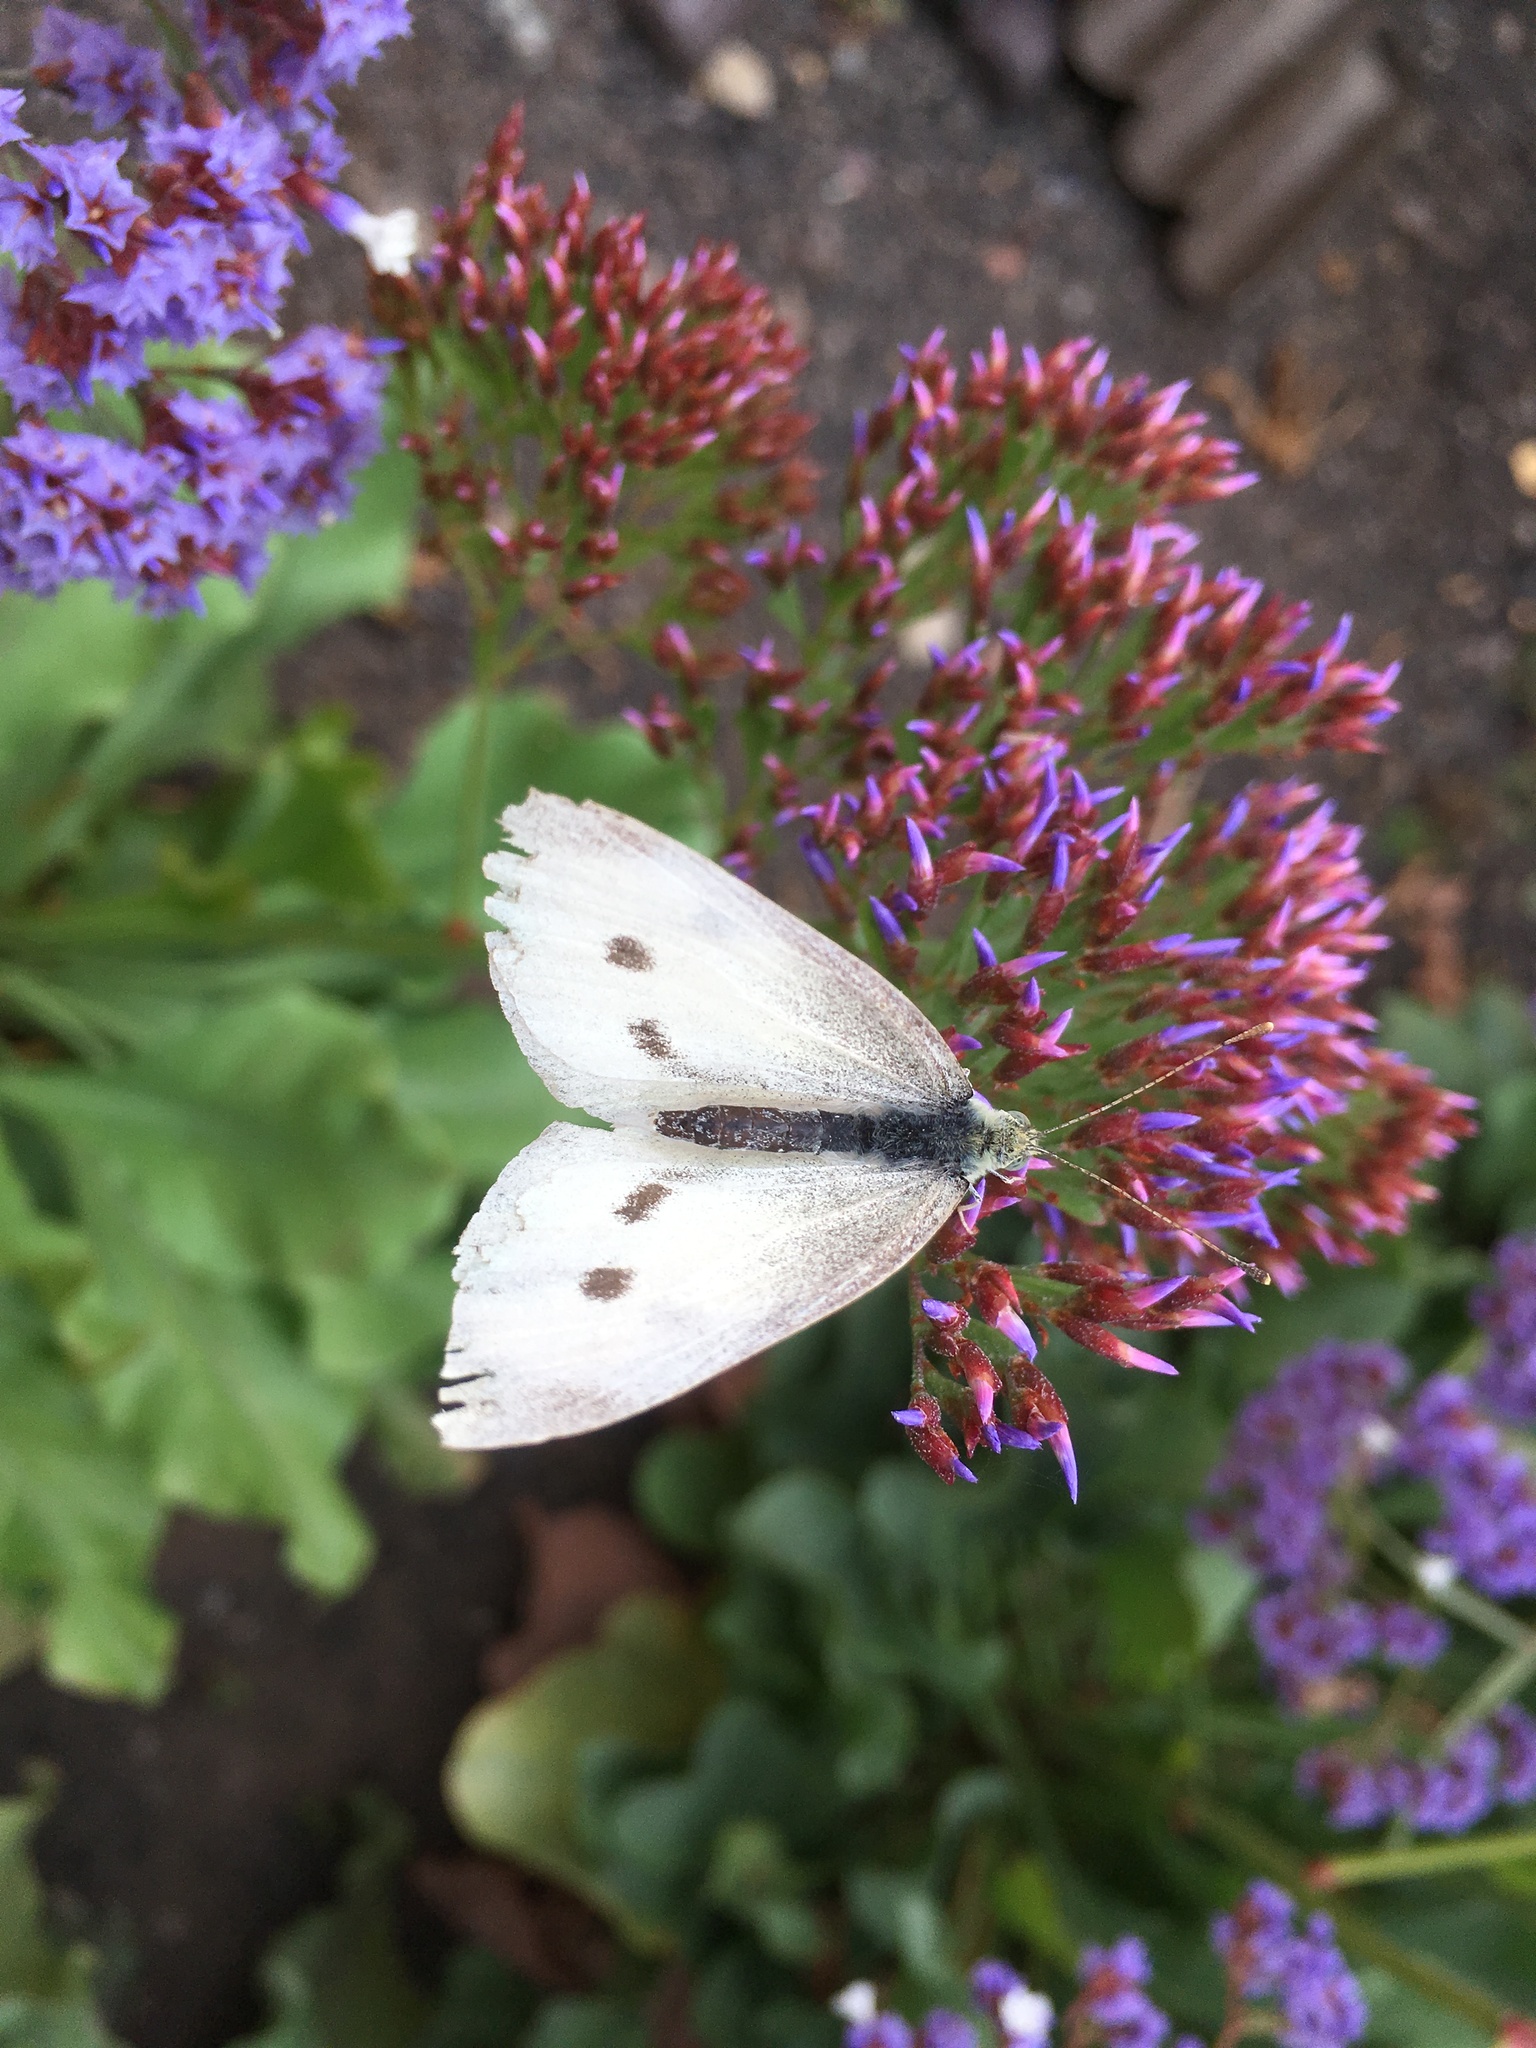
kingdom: Animalia
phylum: Arthropoda
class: Insecta
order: Lepidoptera
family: Pieridae
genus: Pieris
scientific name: Pieris rapae
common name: Small white
